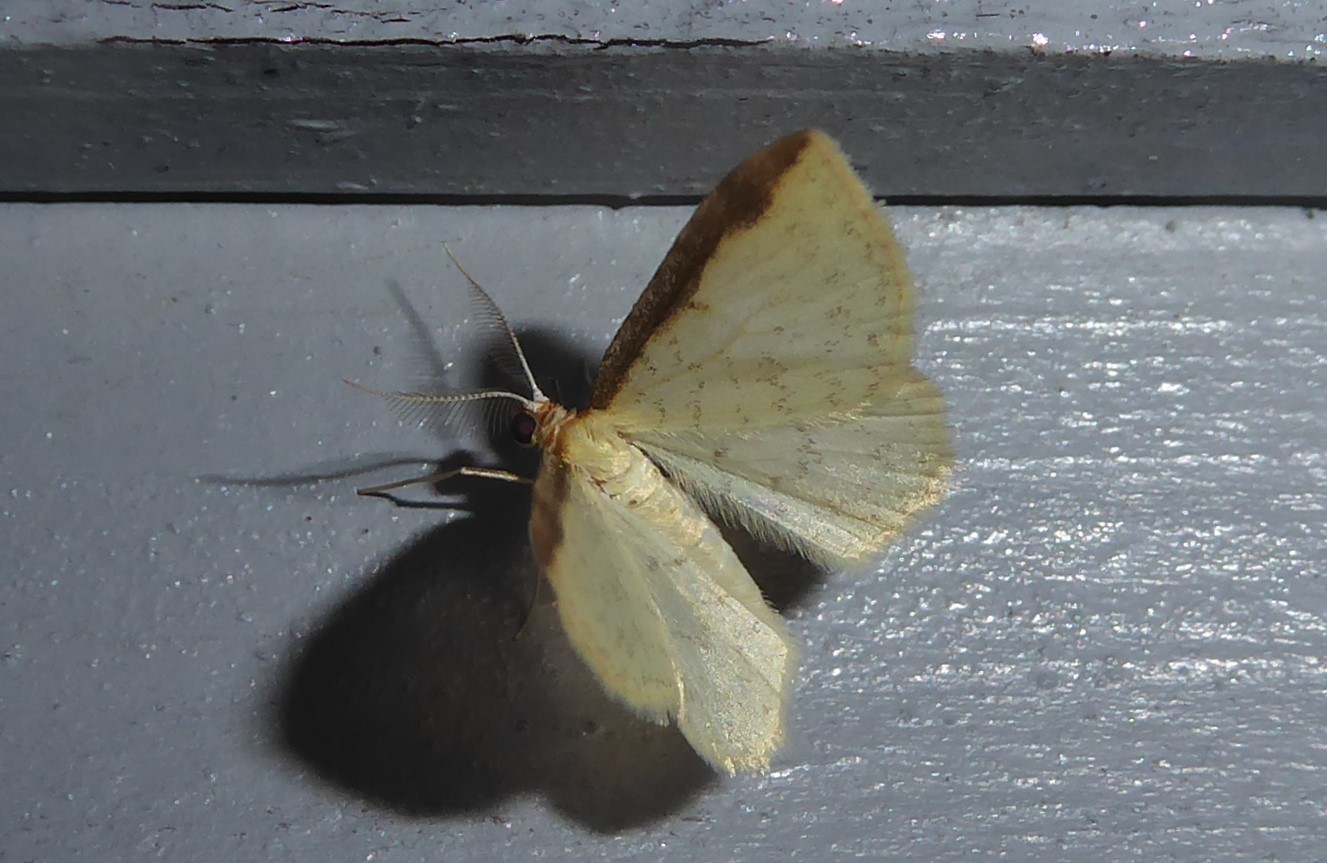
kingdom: Animalia
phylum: Arthropoda
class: Insecta
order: Lepidoptera
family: Geometridae
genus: Epiphryne
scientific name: Epiphryne undosata
